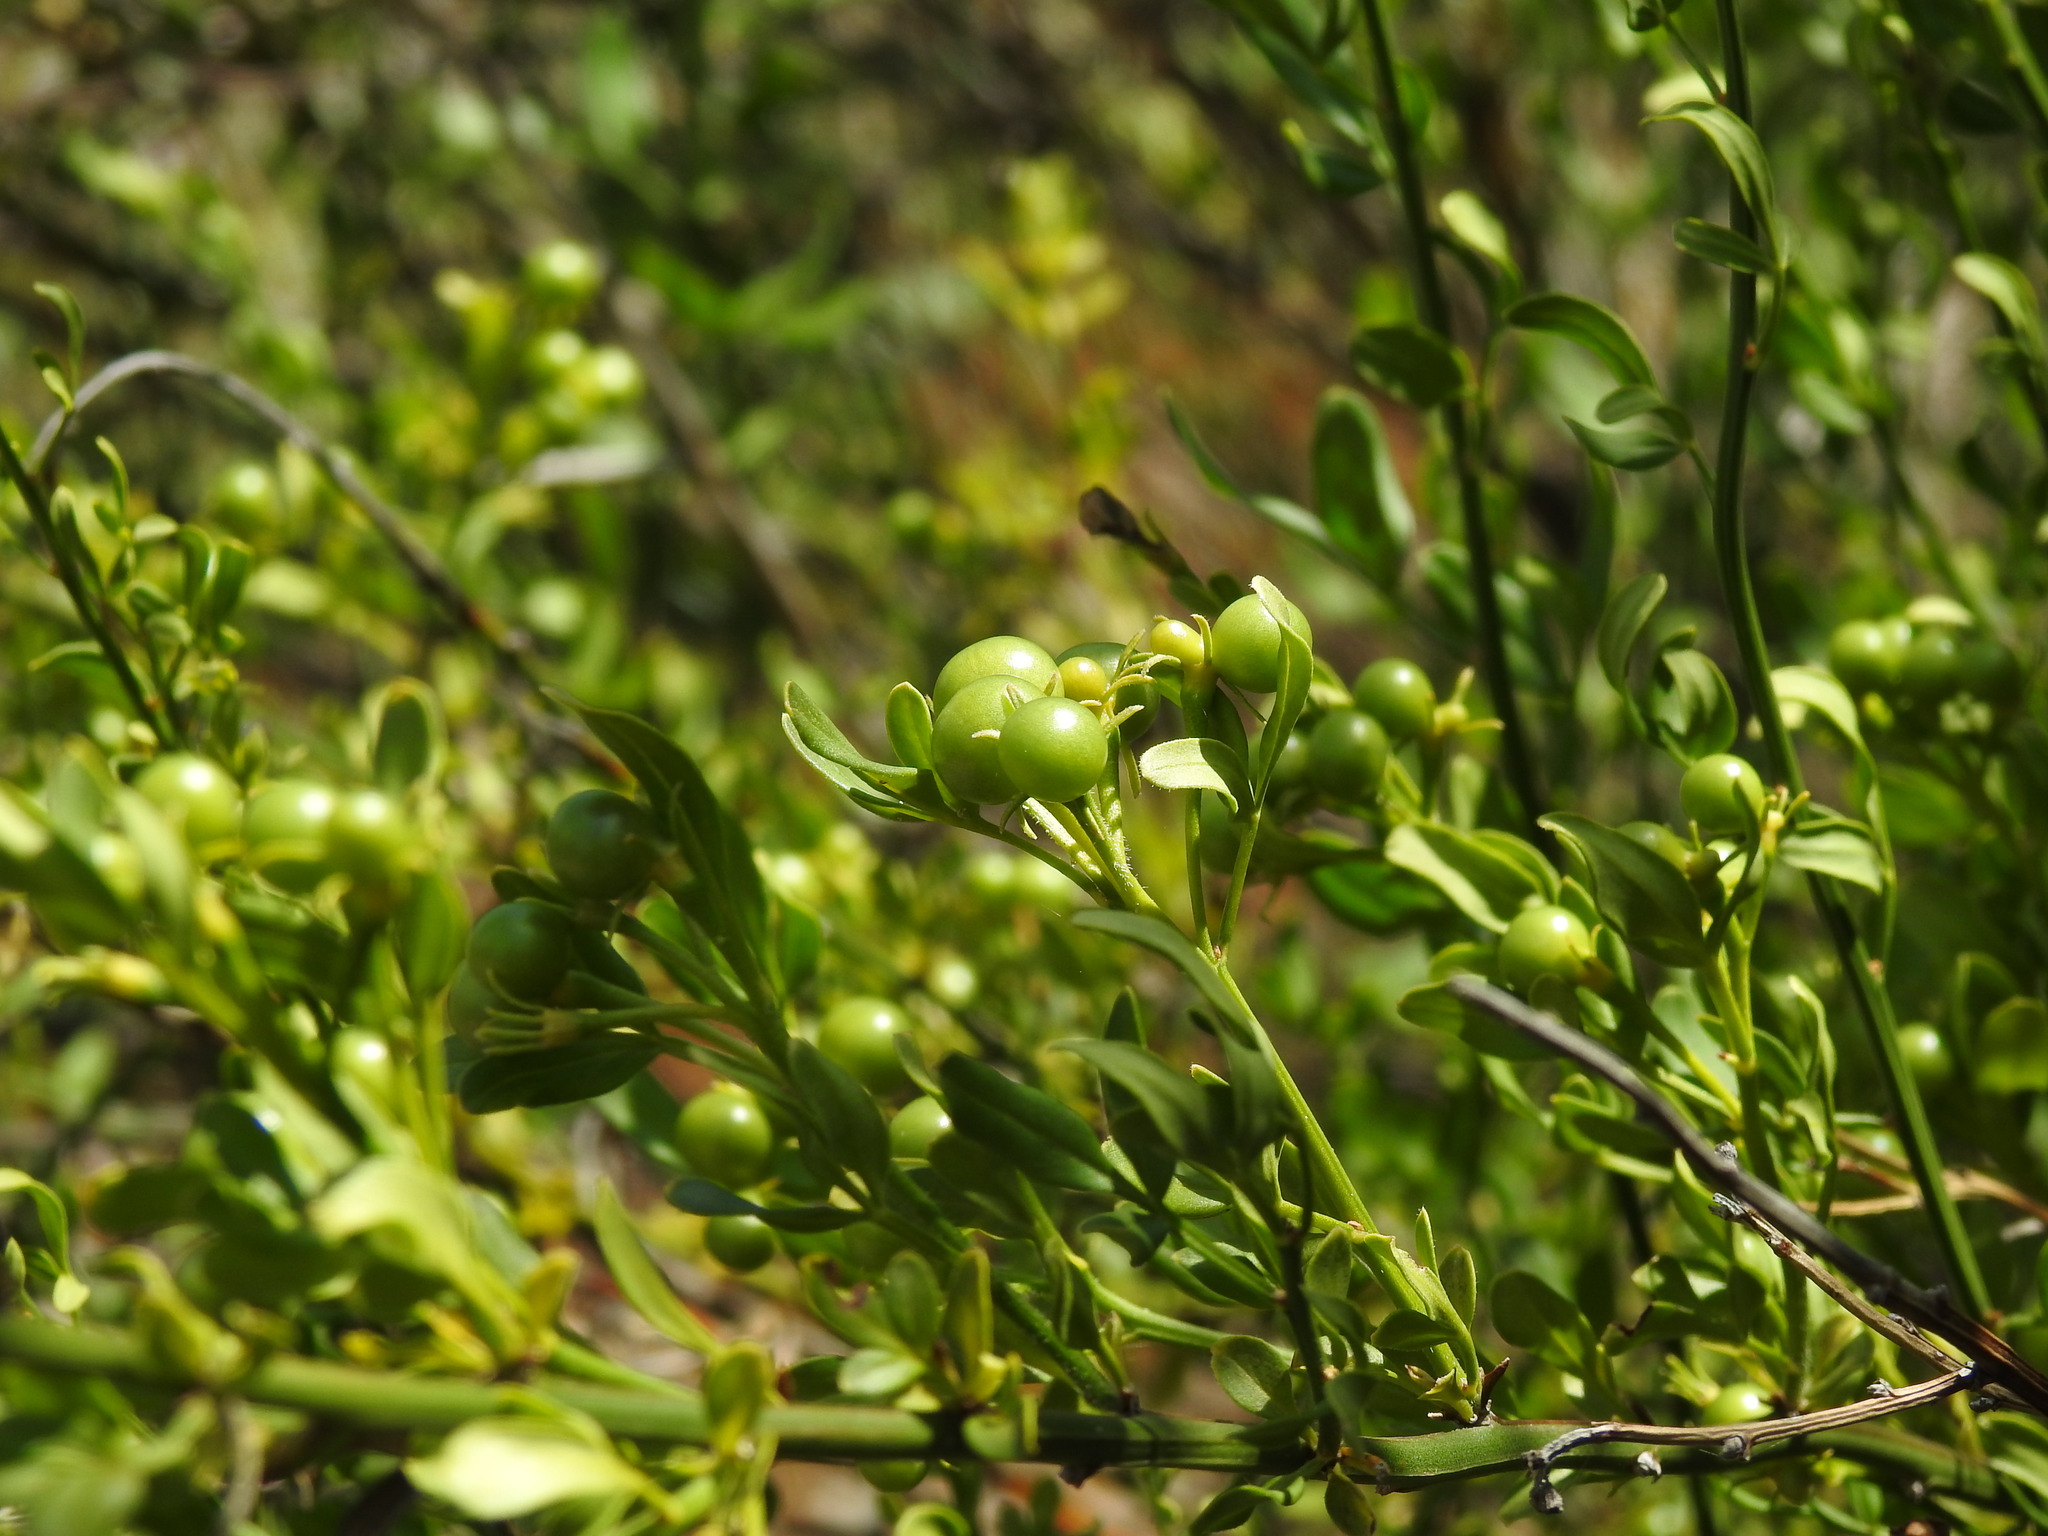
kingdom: Plantae
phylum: Tracheophyta
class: Magnoliopsida
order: Lamiales
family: Oleaceae
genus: Chrysojasminum
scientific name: Chrysojasminum fruticans
